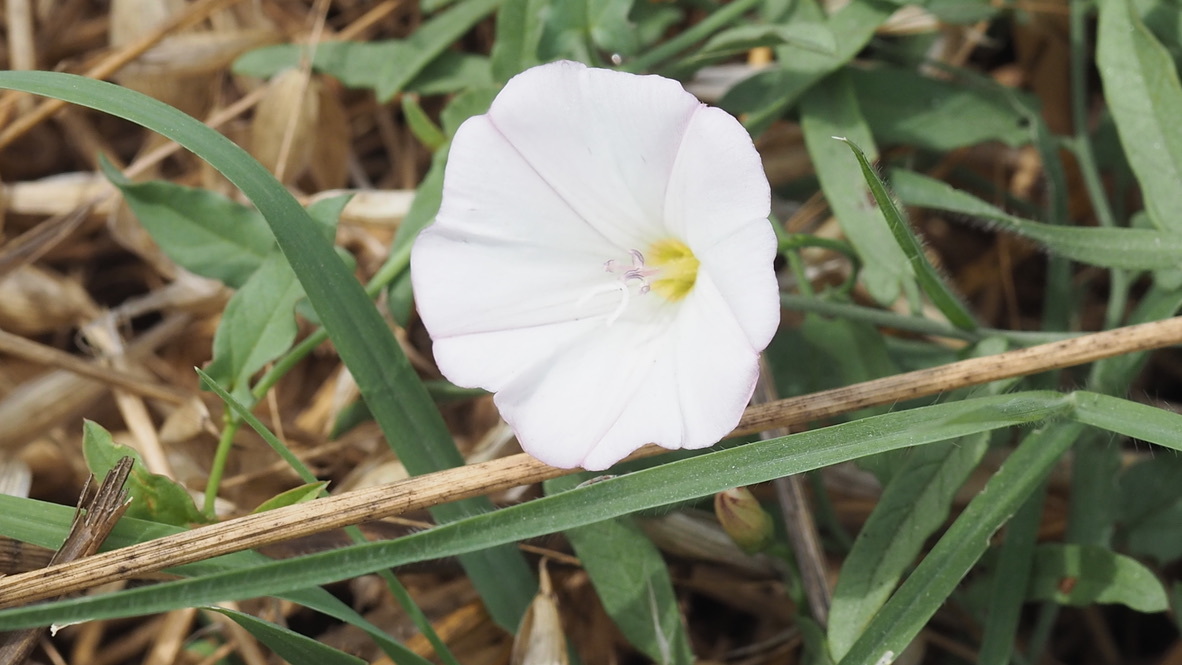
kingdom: Plantae
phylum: Tracheophyta
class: Magnoliopsida
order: Solanales
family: Convolvulaceae
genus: Convolvulus
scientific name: Convolvulus arvensis
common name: Field bindweed
